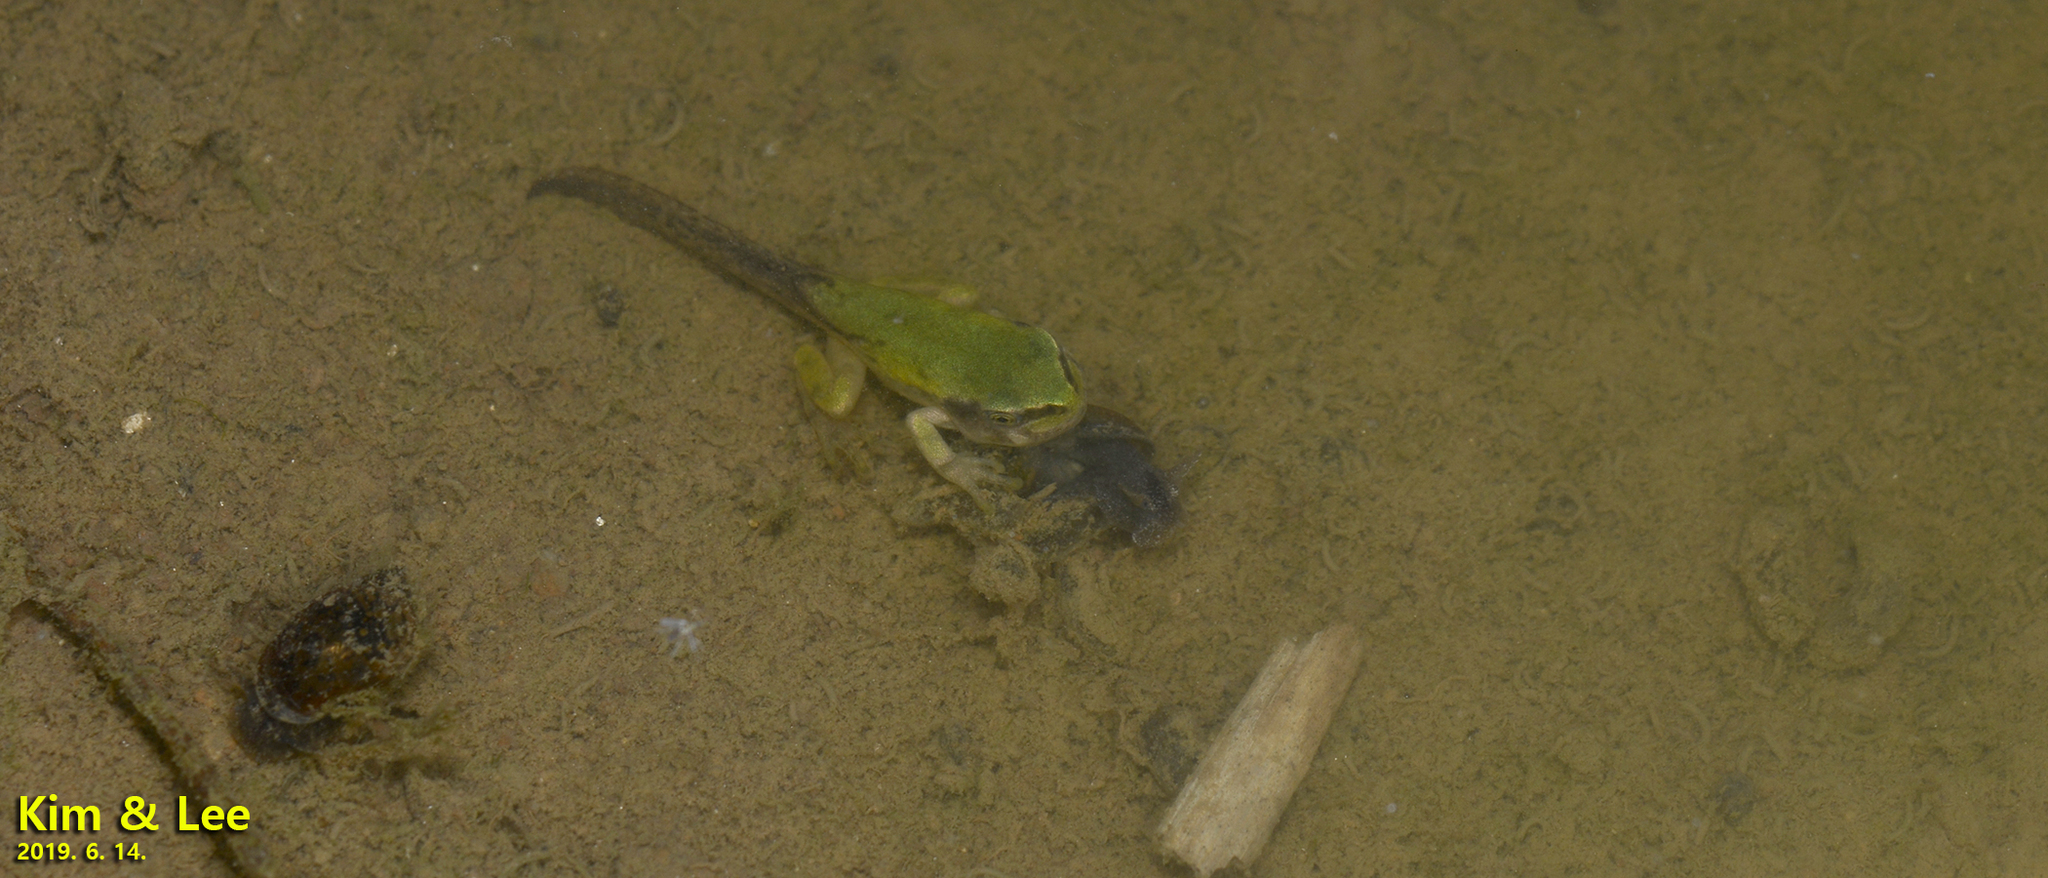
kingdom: Animalia
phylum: Chordata
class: Amphibia
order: Anura
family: Hylidae
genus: Dryophytes
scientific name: Dryophytes japonicus
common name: Japanese treefrog
